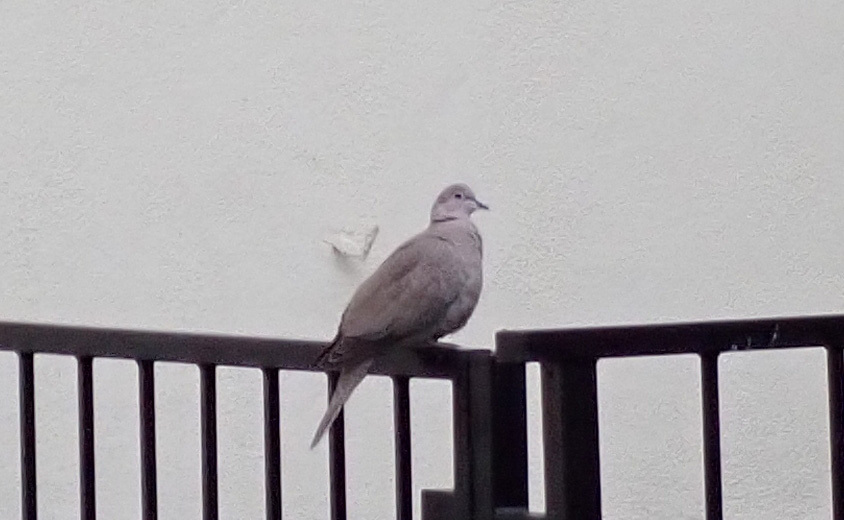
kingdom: Animalia
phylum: Chordata
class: Aves
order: Columbiformes
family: Columbidae
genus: Streptopelia
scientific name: Streptopelia decaocto
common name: Eurasian collared dove
